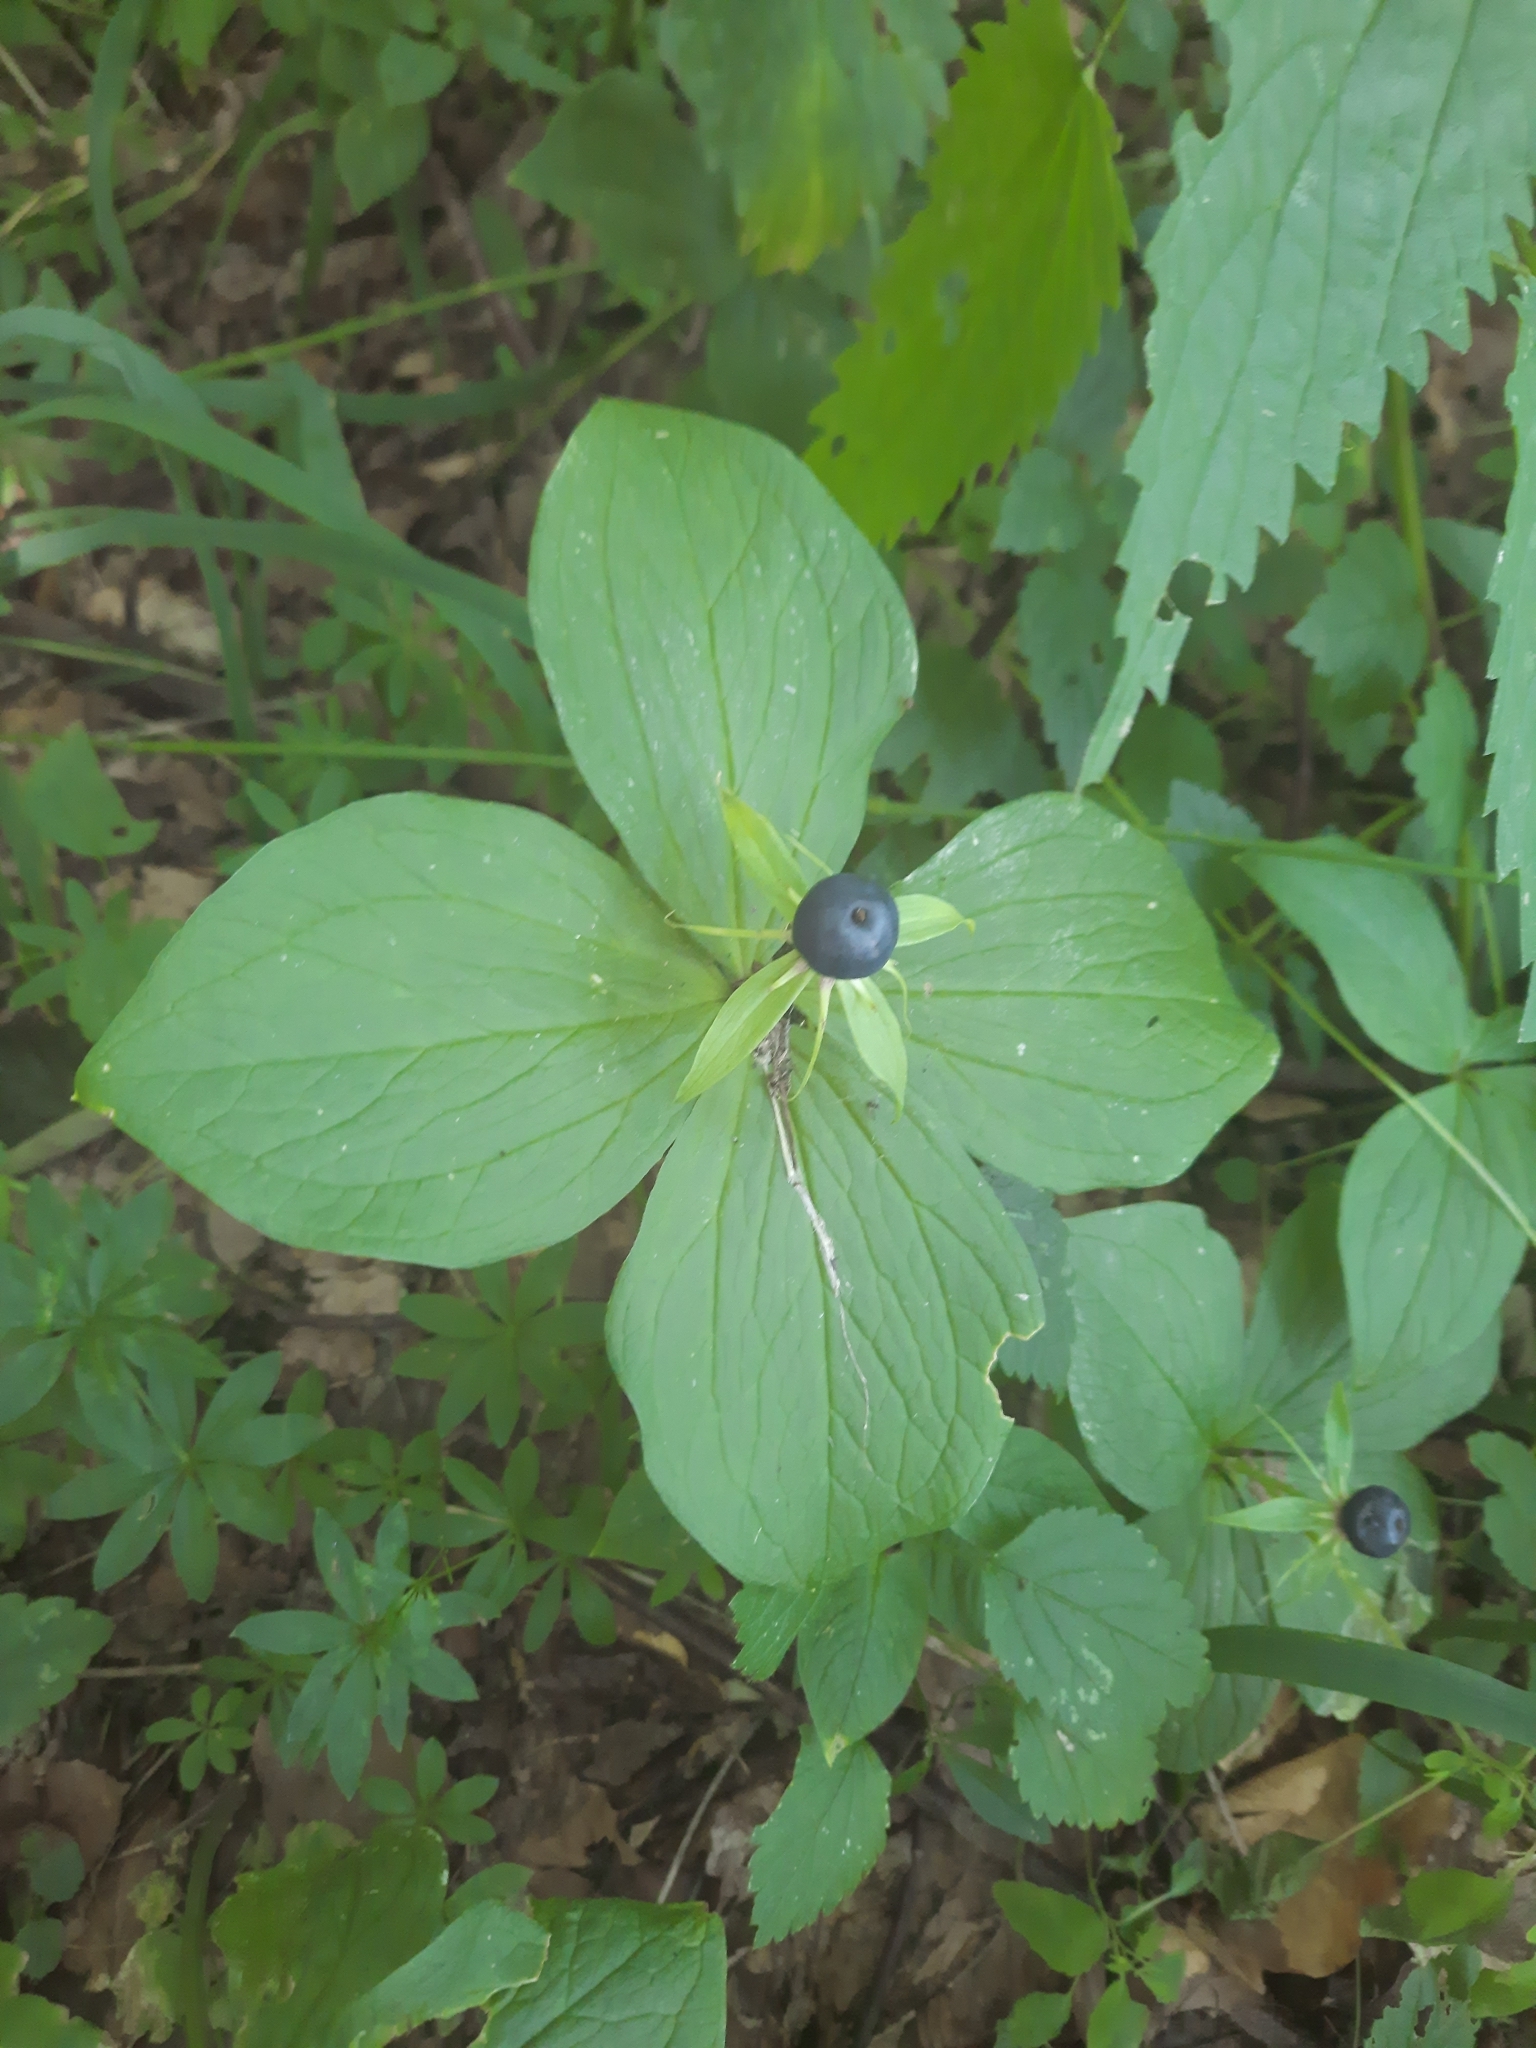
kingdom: Plantae
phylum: Tracheophyta
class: Liliopsida
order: Liliales
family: Melanthiaceae
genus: Paris
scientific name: Paris quadrifolia
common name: Herb-paris
